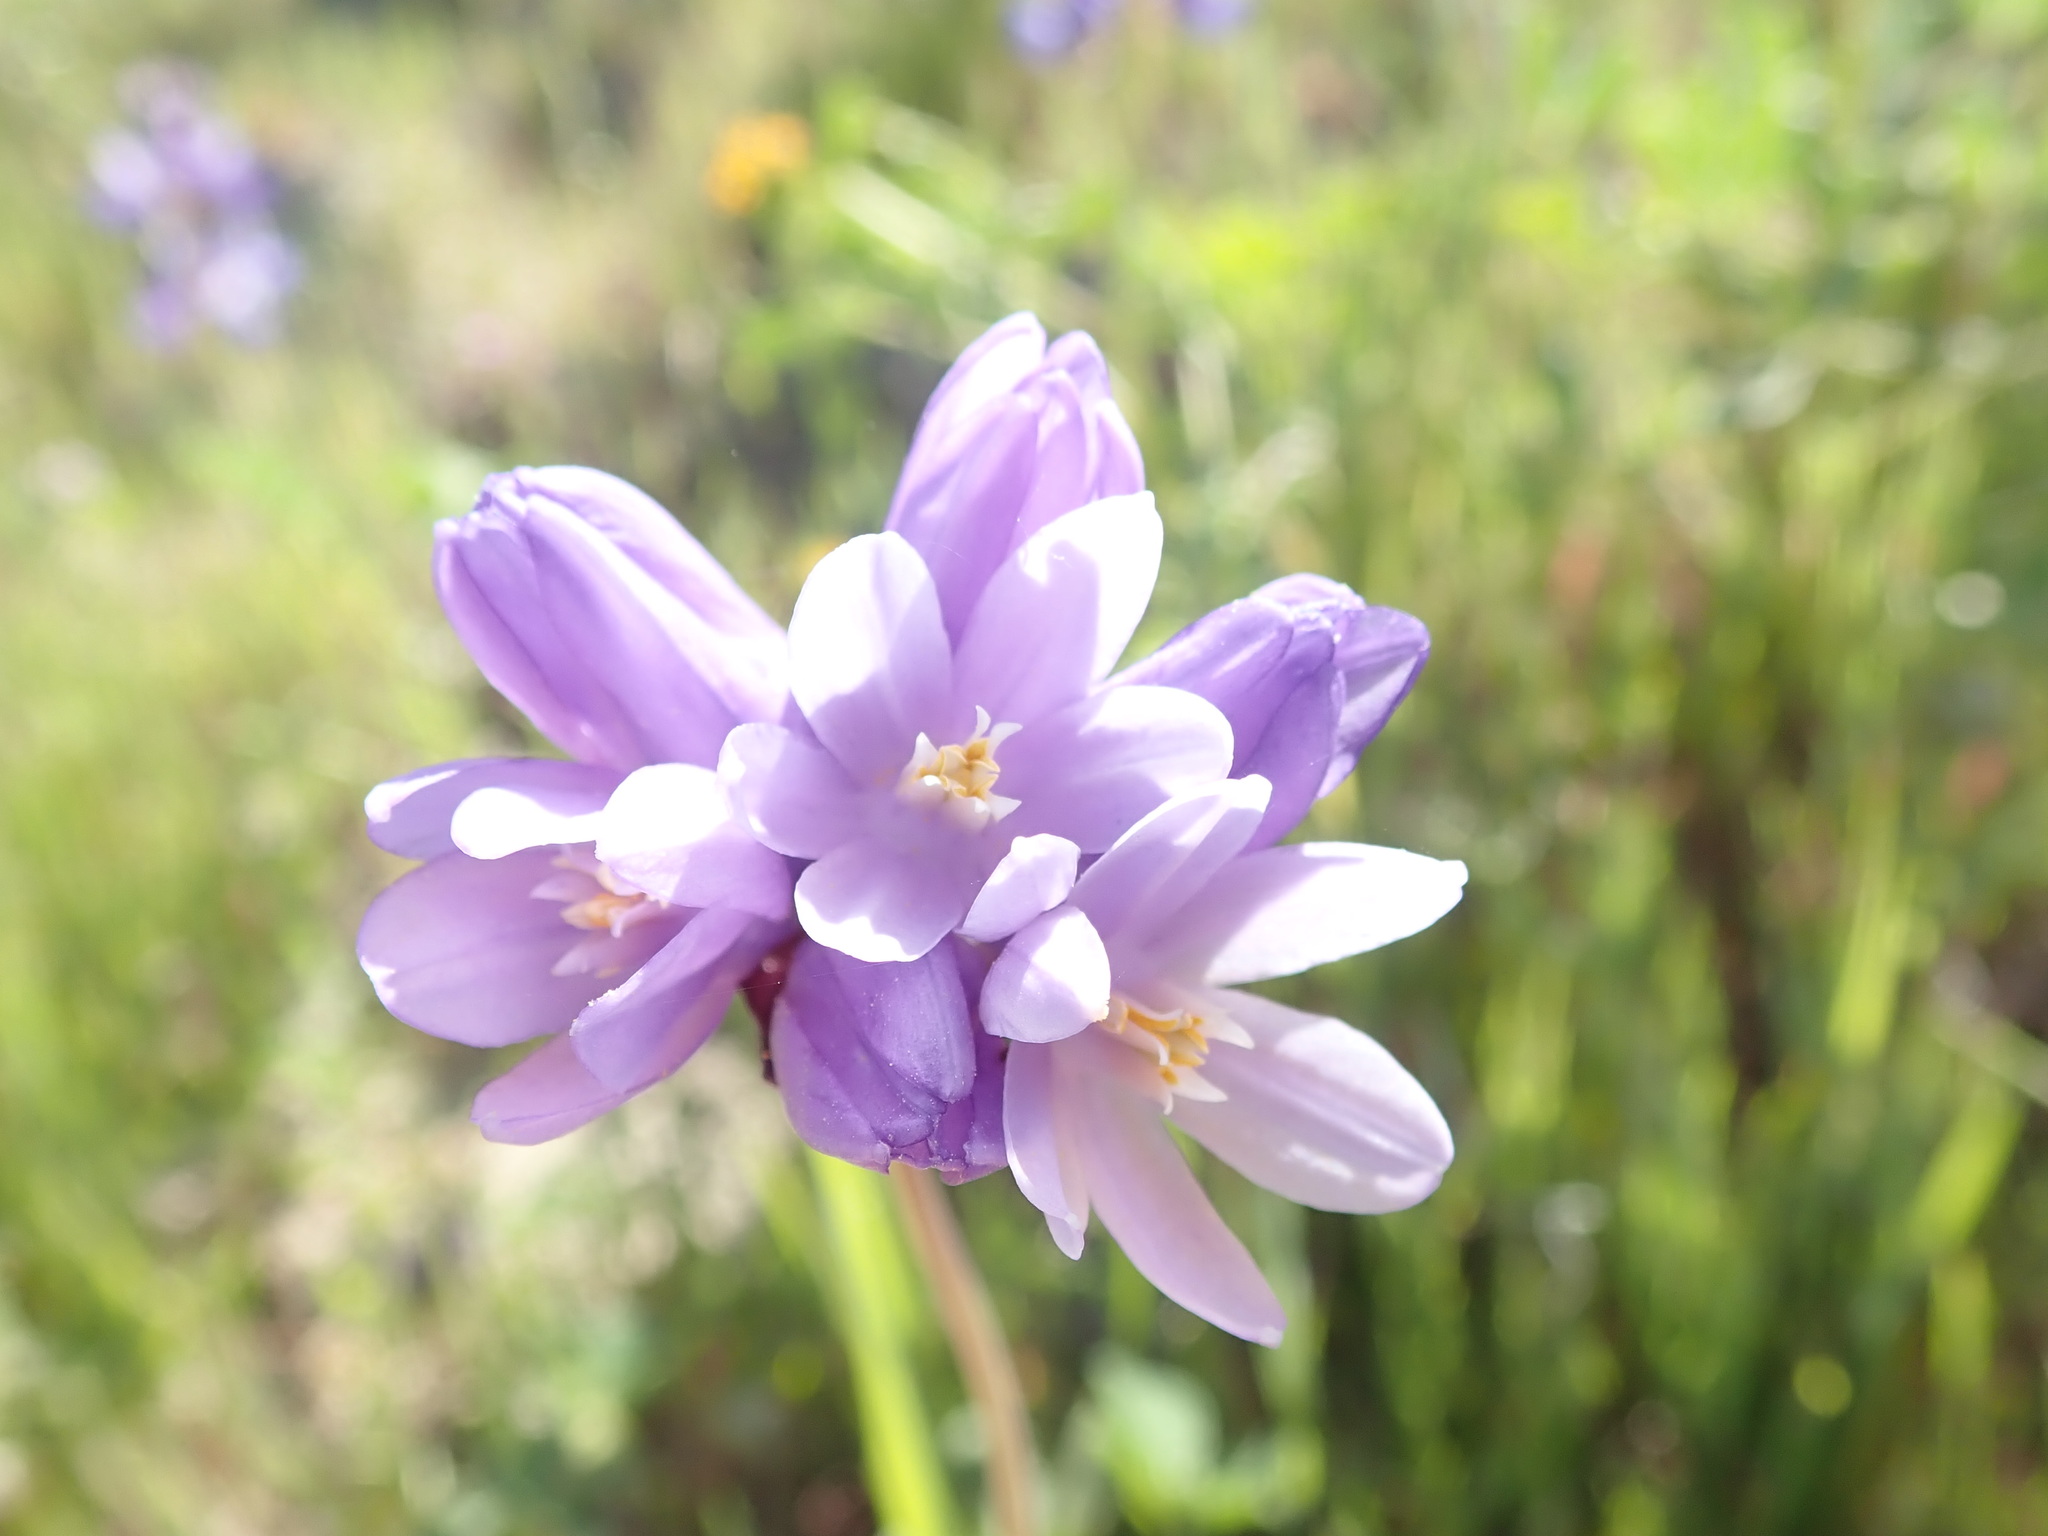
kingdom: Plantae
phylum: Tracheophyta
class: Liliopsida
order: Asparagales
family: Asparagaceae
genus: Dipterostemon
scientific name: Dipterostemon capitatus
